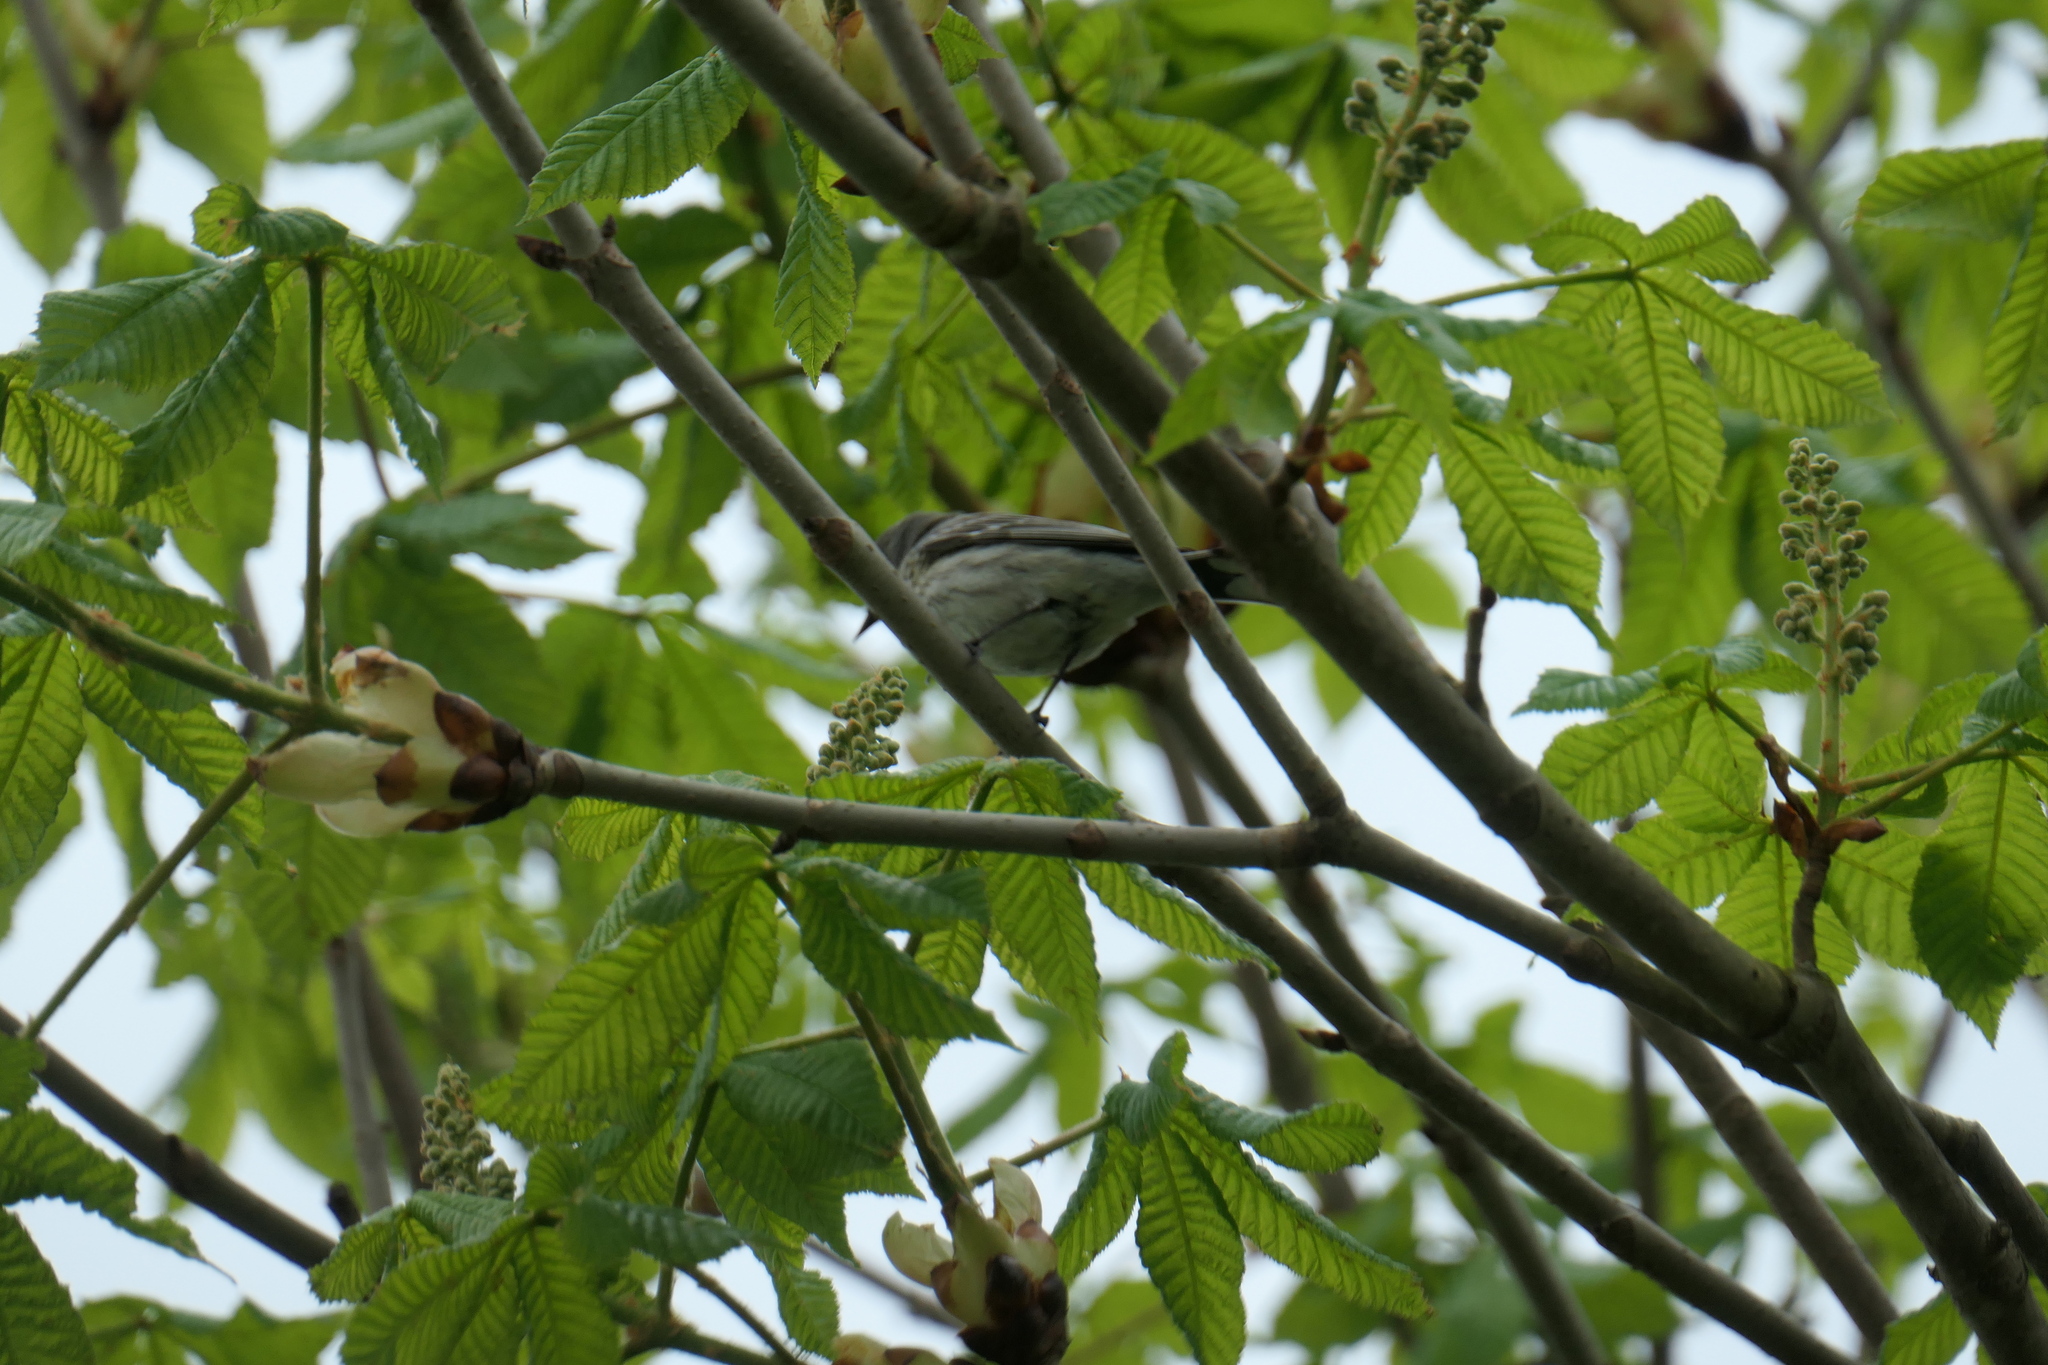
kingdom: Animalia
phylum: Chordata
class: Aves
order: Passeriformes
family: Parulidae
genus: Setophaga
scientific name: Setophaga coronata
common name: Myrtle warbler
